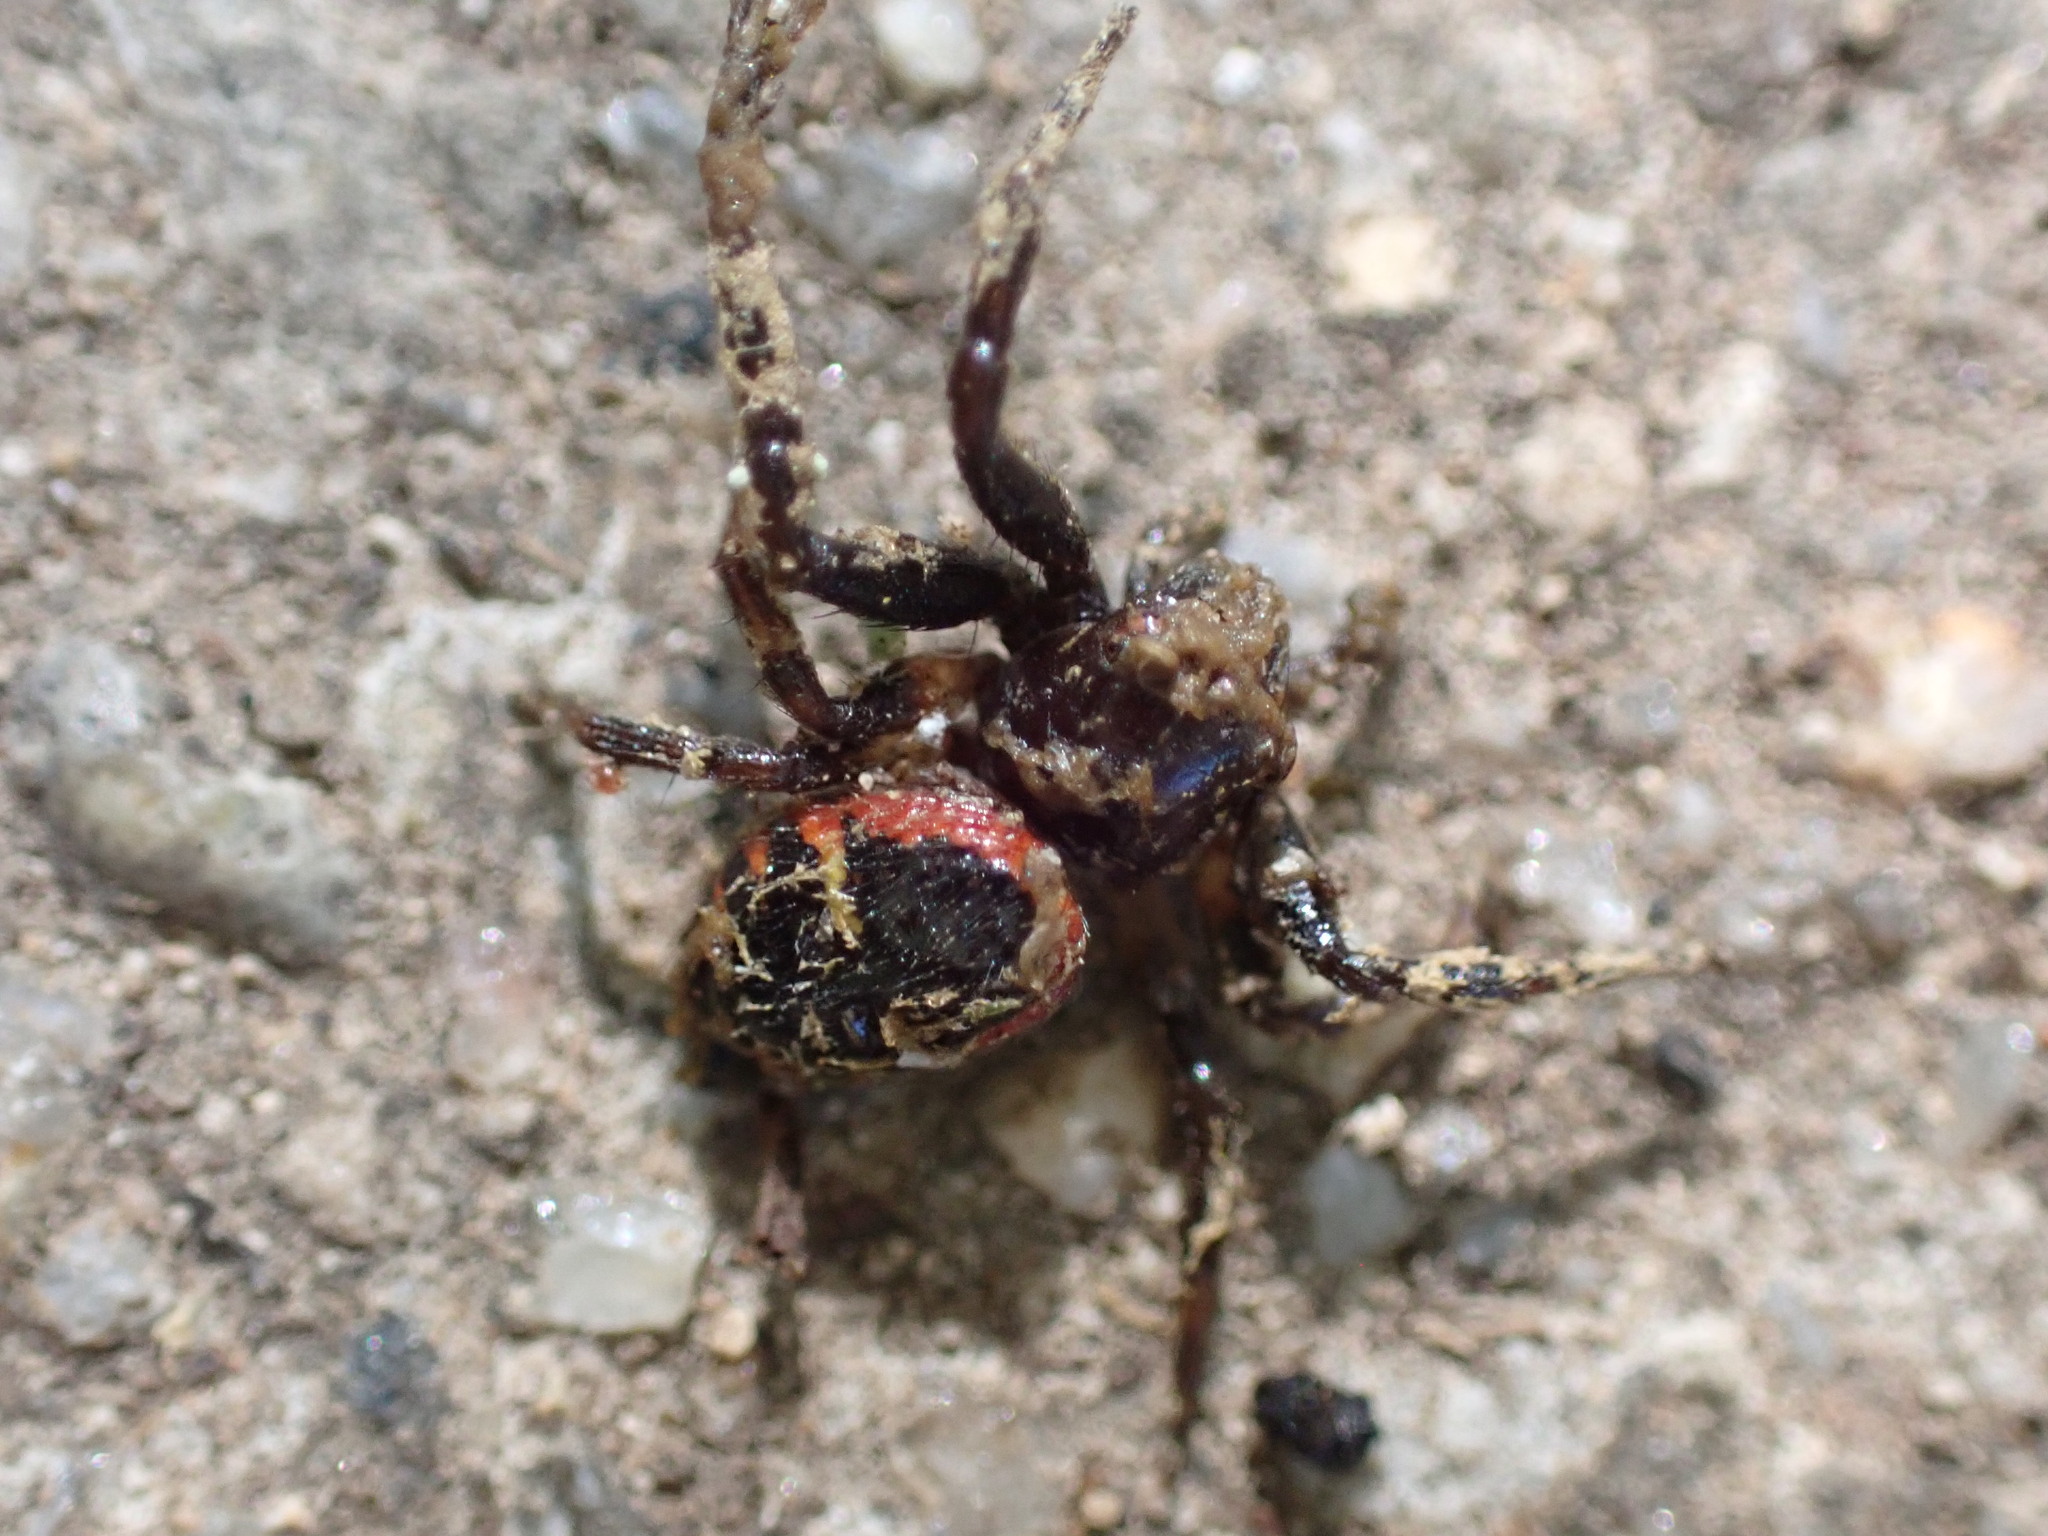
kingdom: Animalia
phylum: Arthropoda
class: Arachnida
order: Araneae
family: Thomisidae
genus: Synema
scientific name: Synema globosum
